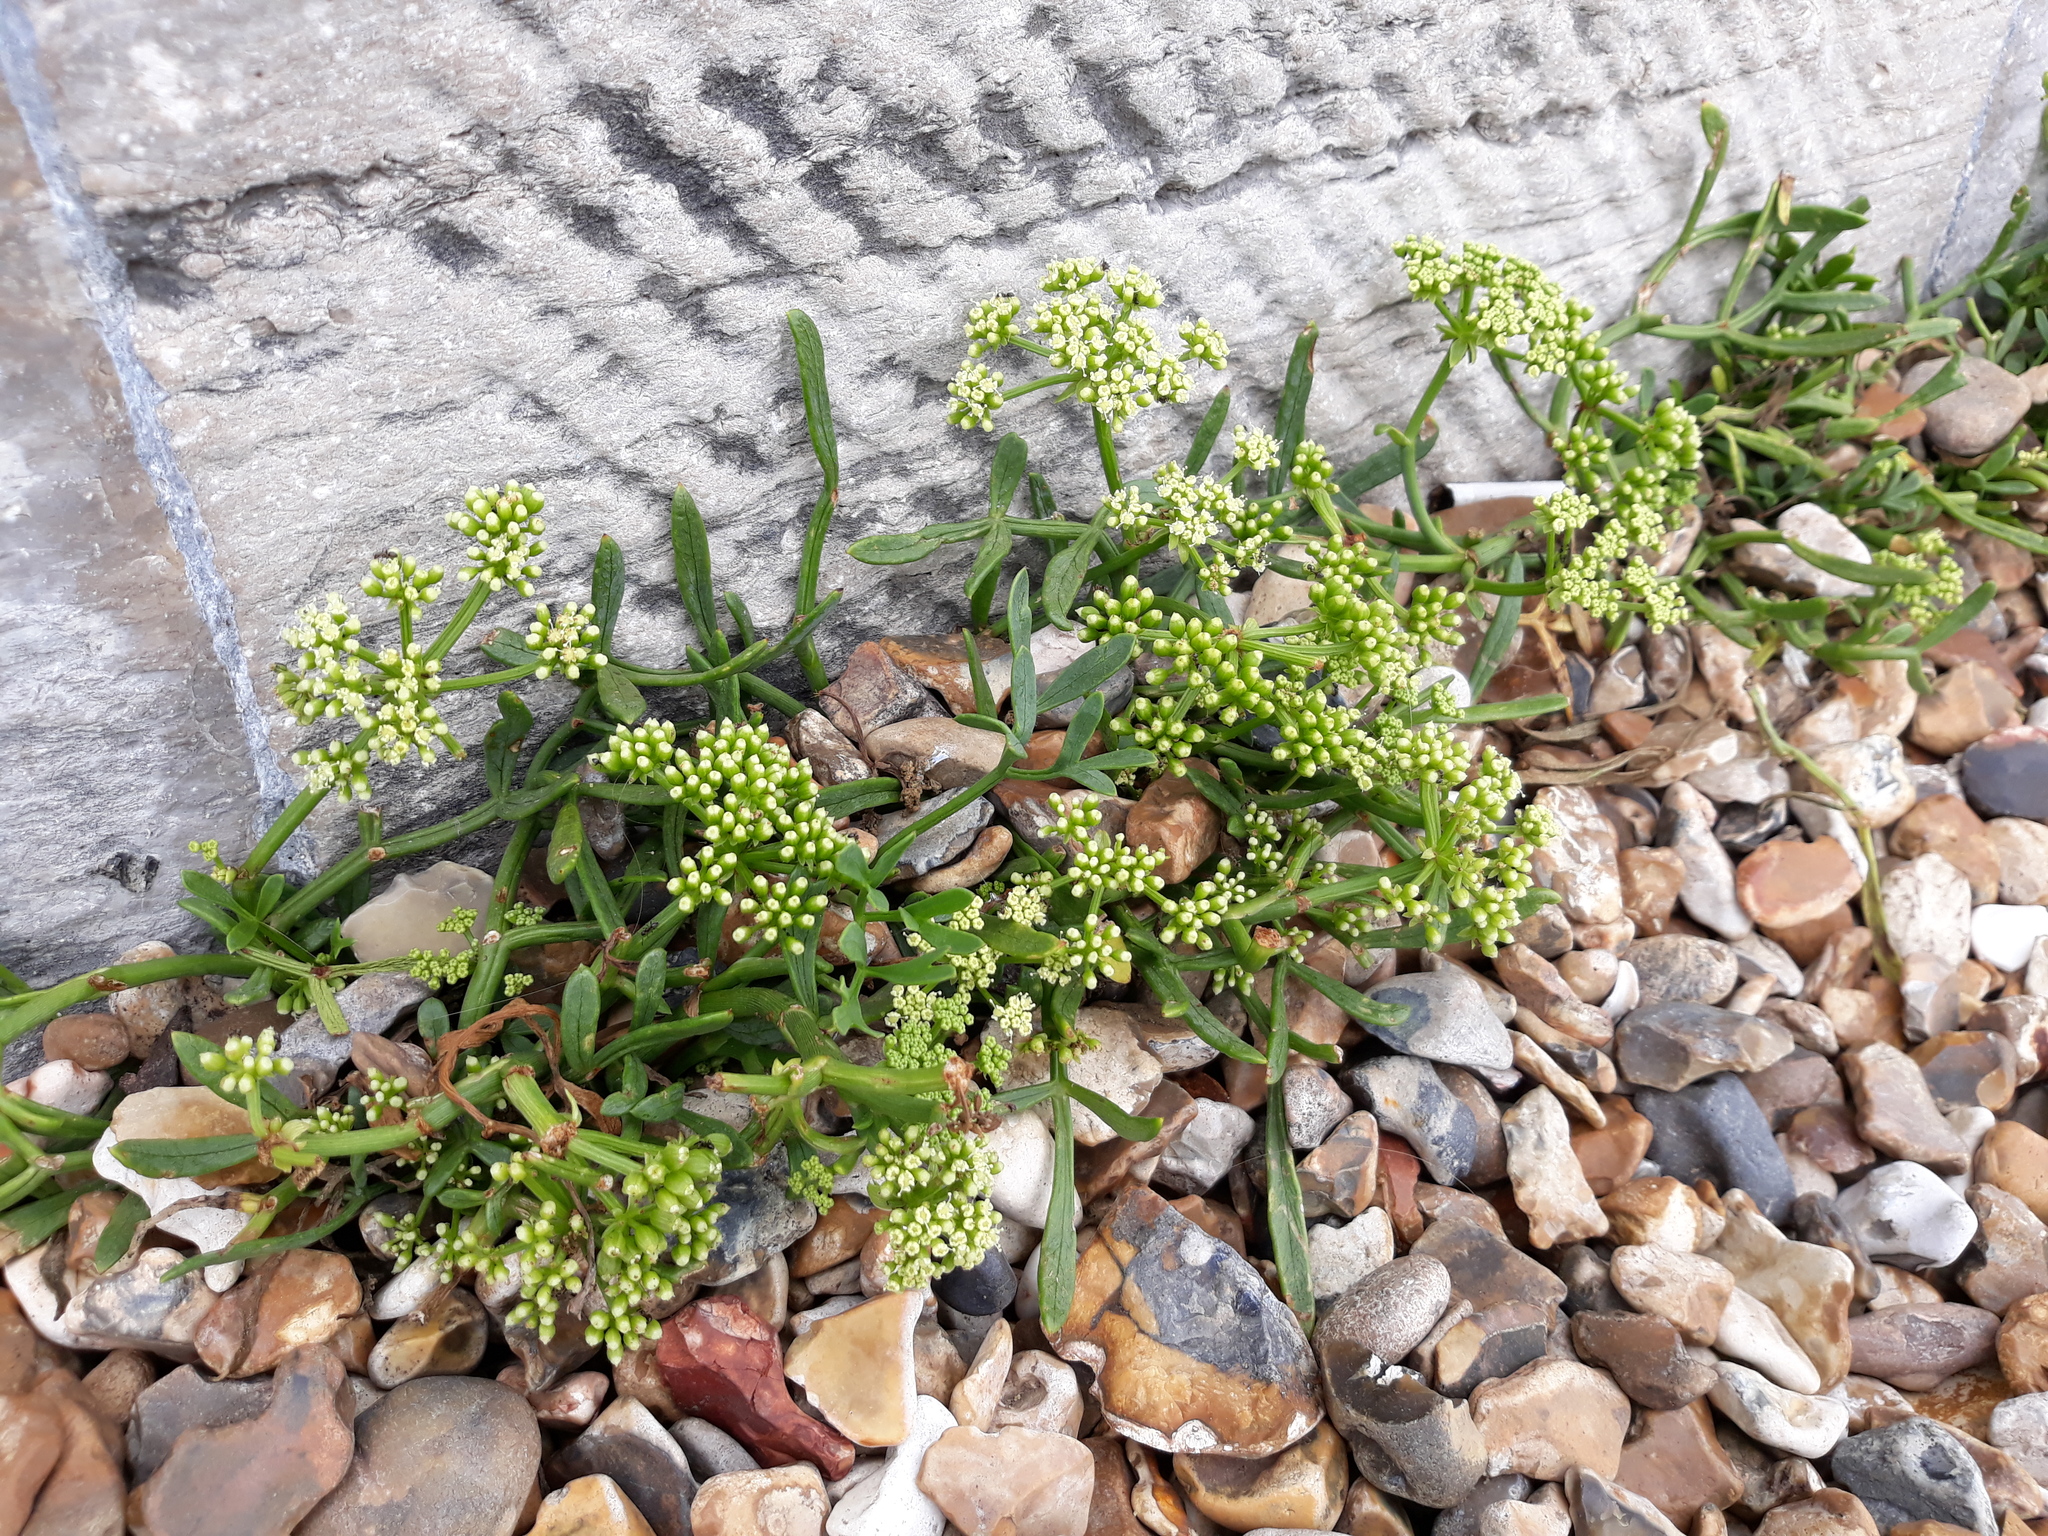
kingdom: Plantae
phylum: Tracheophyta
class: Magnoliopsida
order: Apiales
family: Apiaceae
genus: Crithmum
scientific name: Crithmum maritimum
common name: Rock samphire
